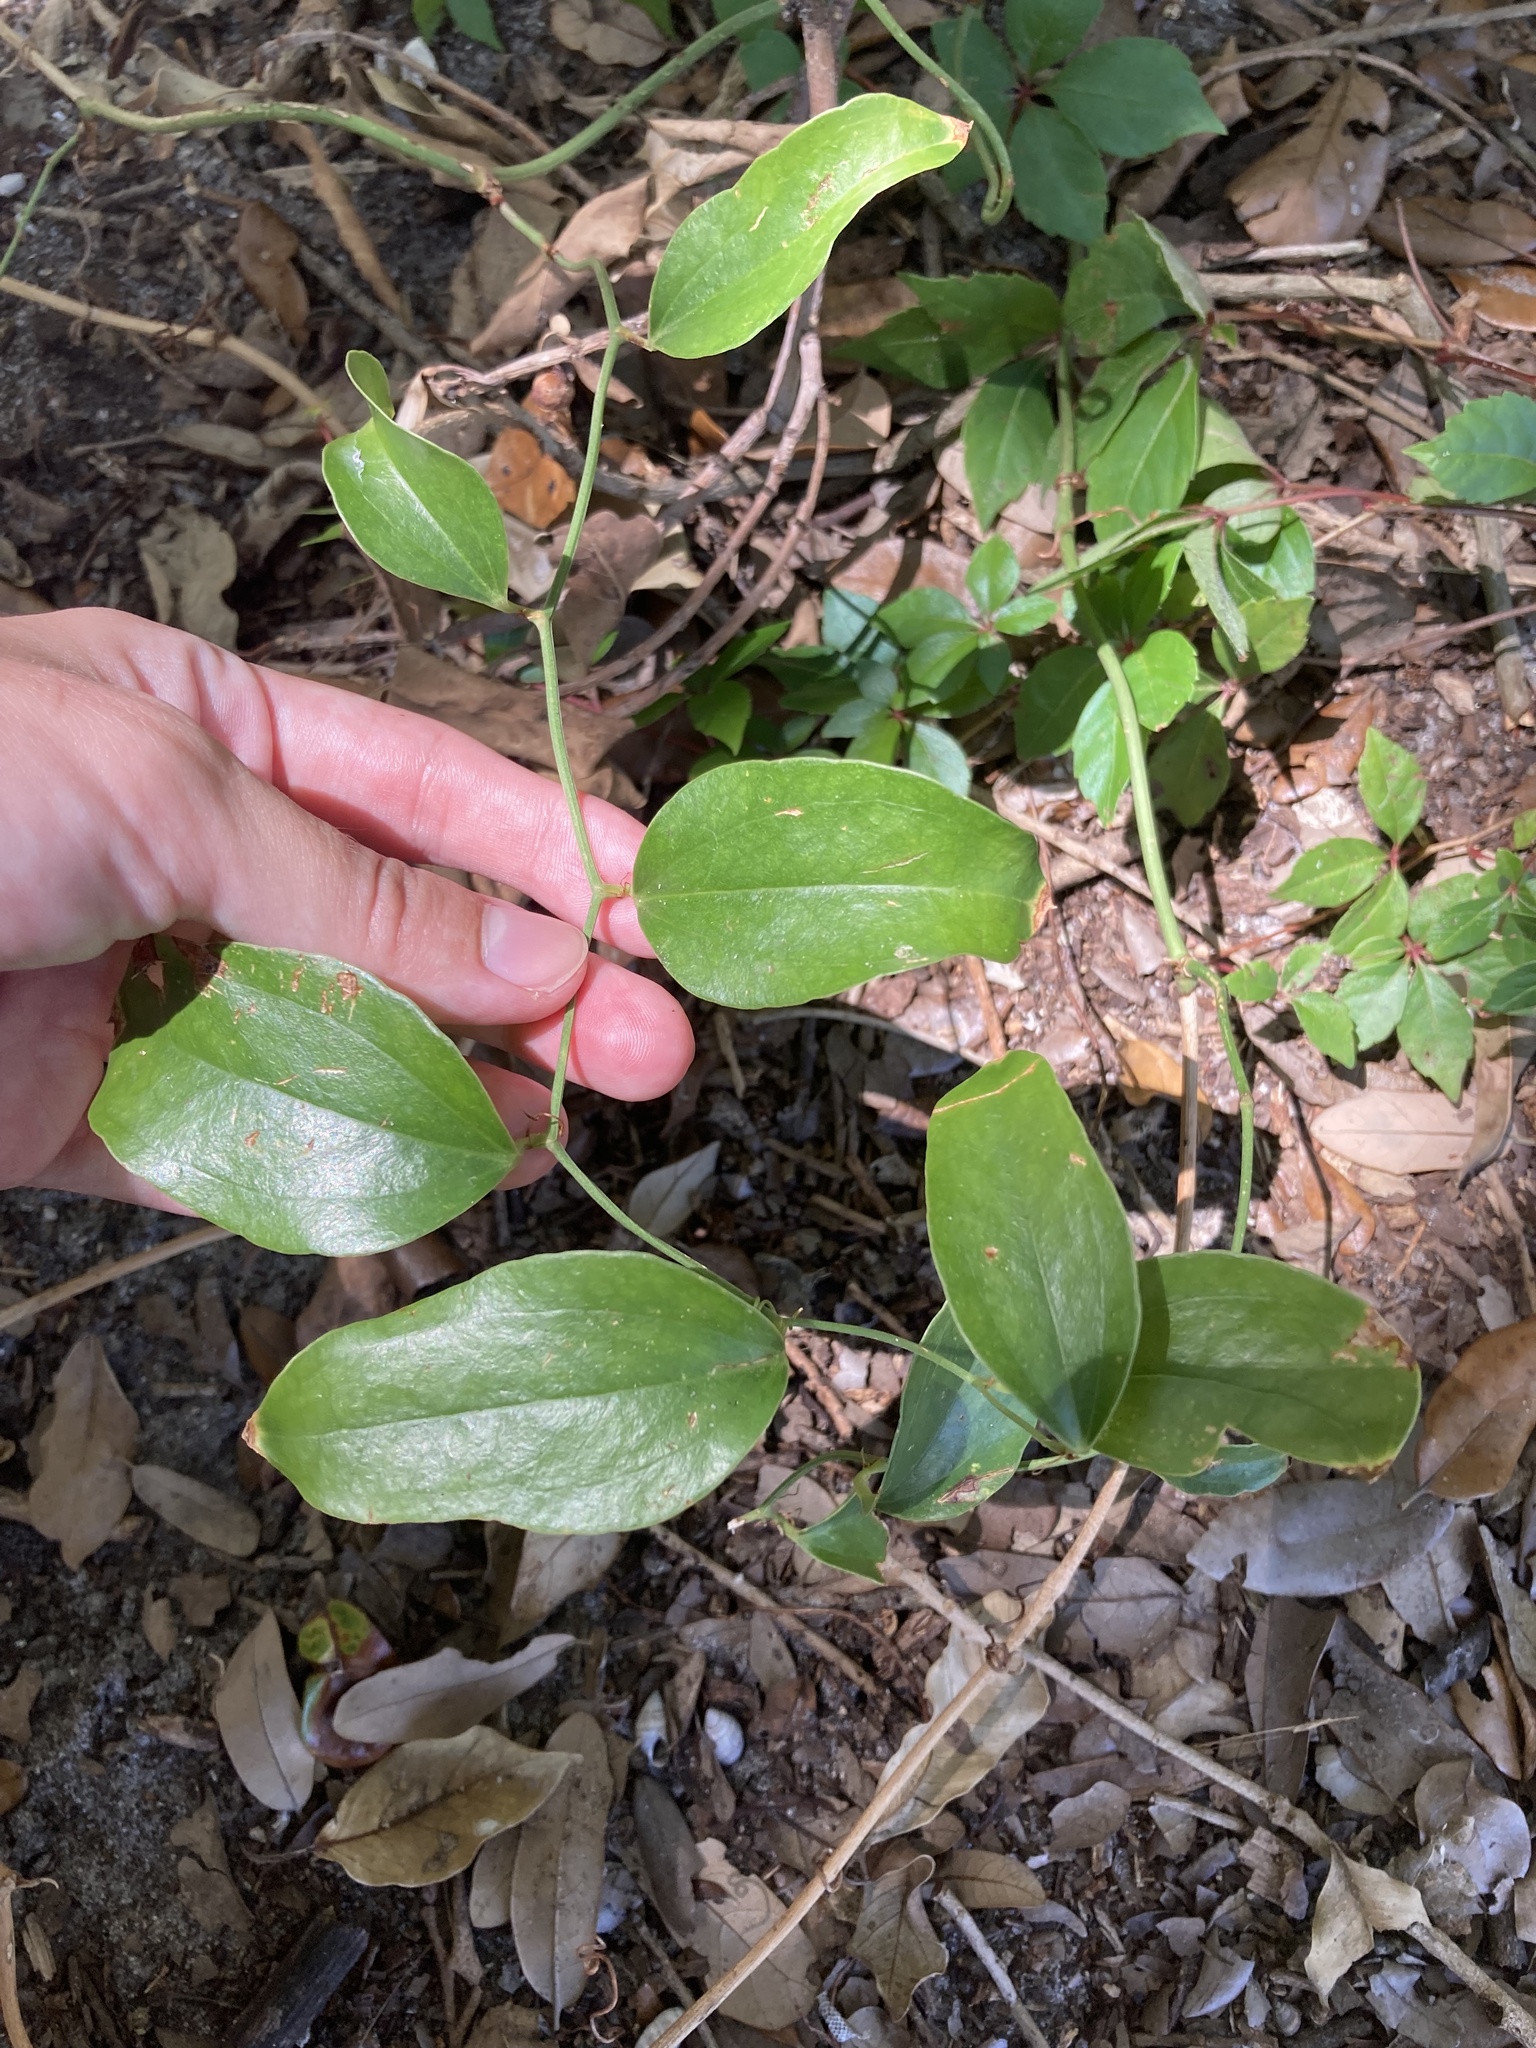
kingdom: Plantae
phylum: Tracheophyta
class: Liliopsida
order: Liliales
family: Smilacaceae
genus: Smilax
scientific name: Smilax auriculata
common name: Wild bamboo
